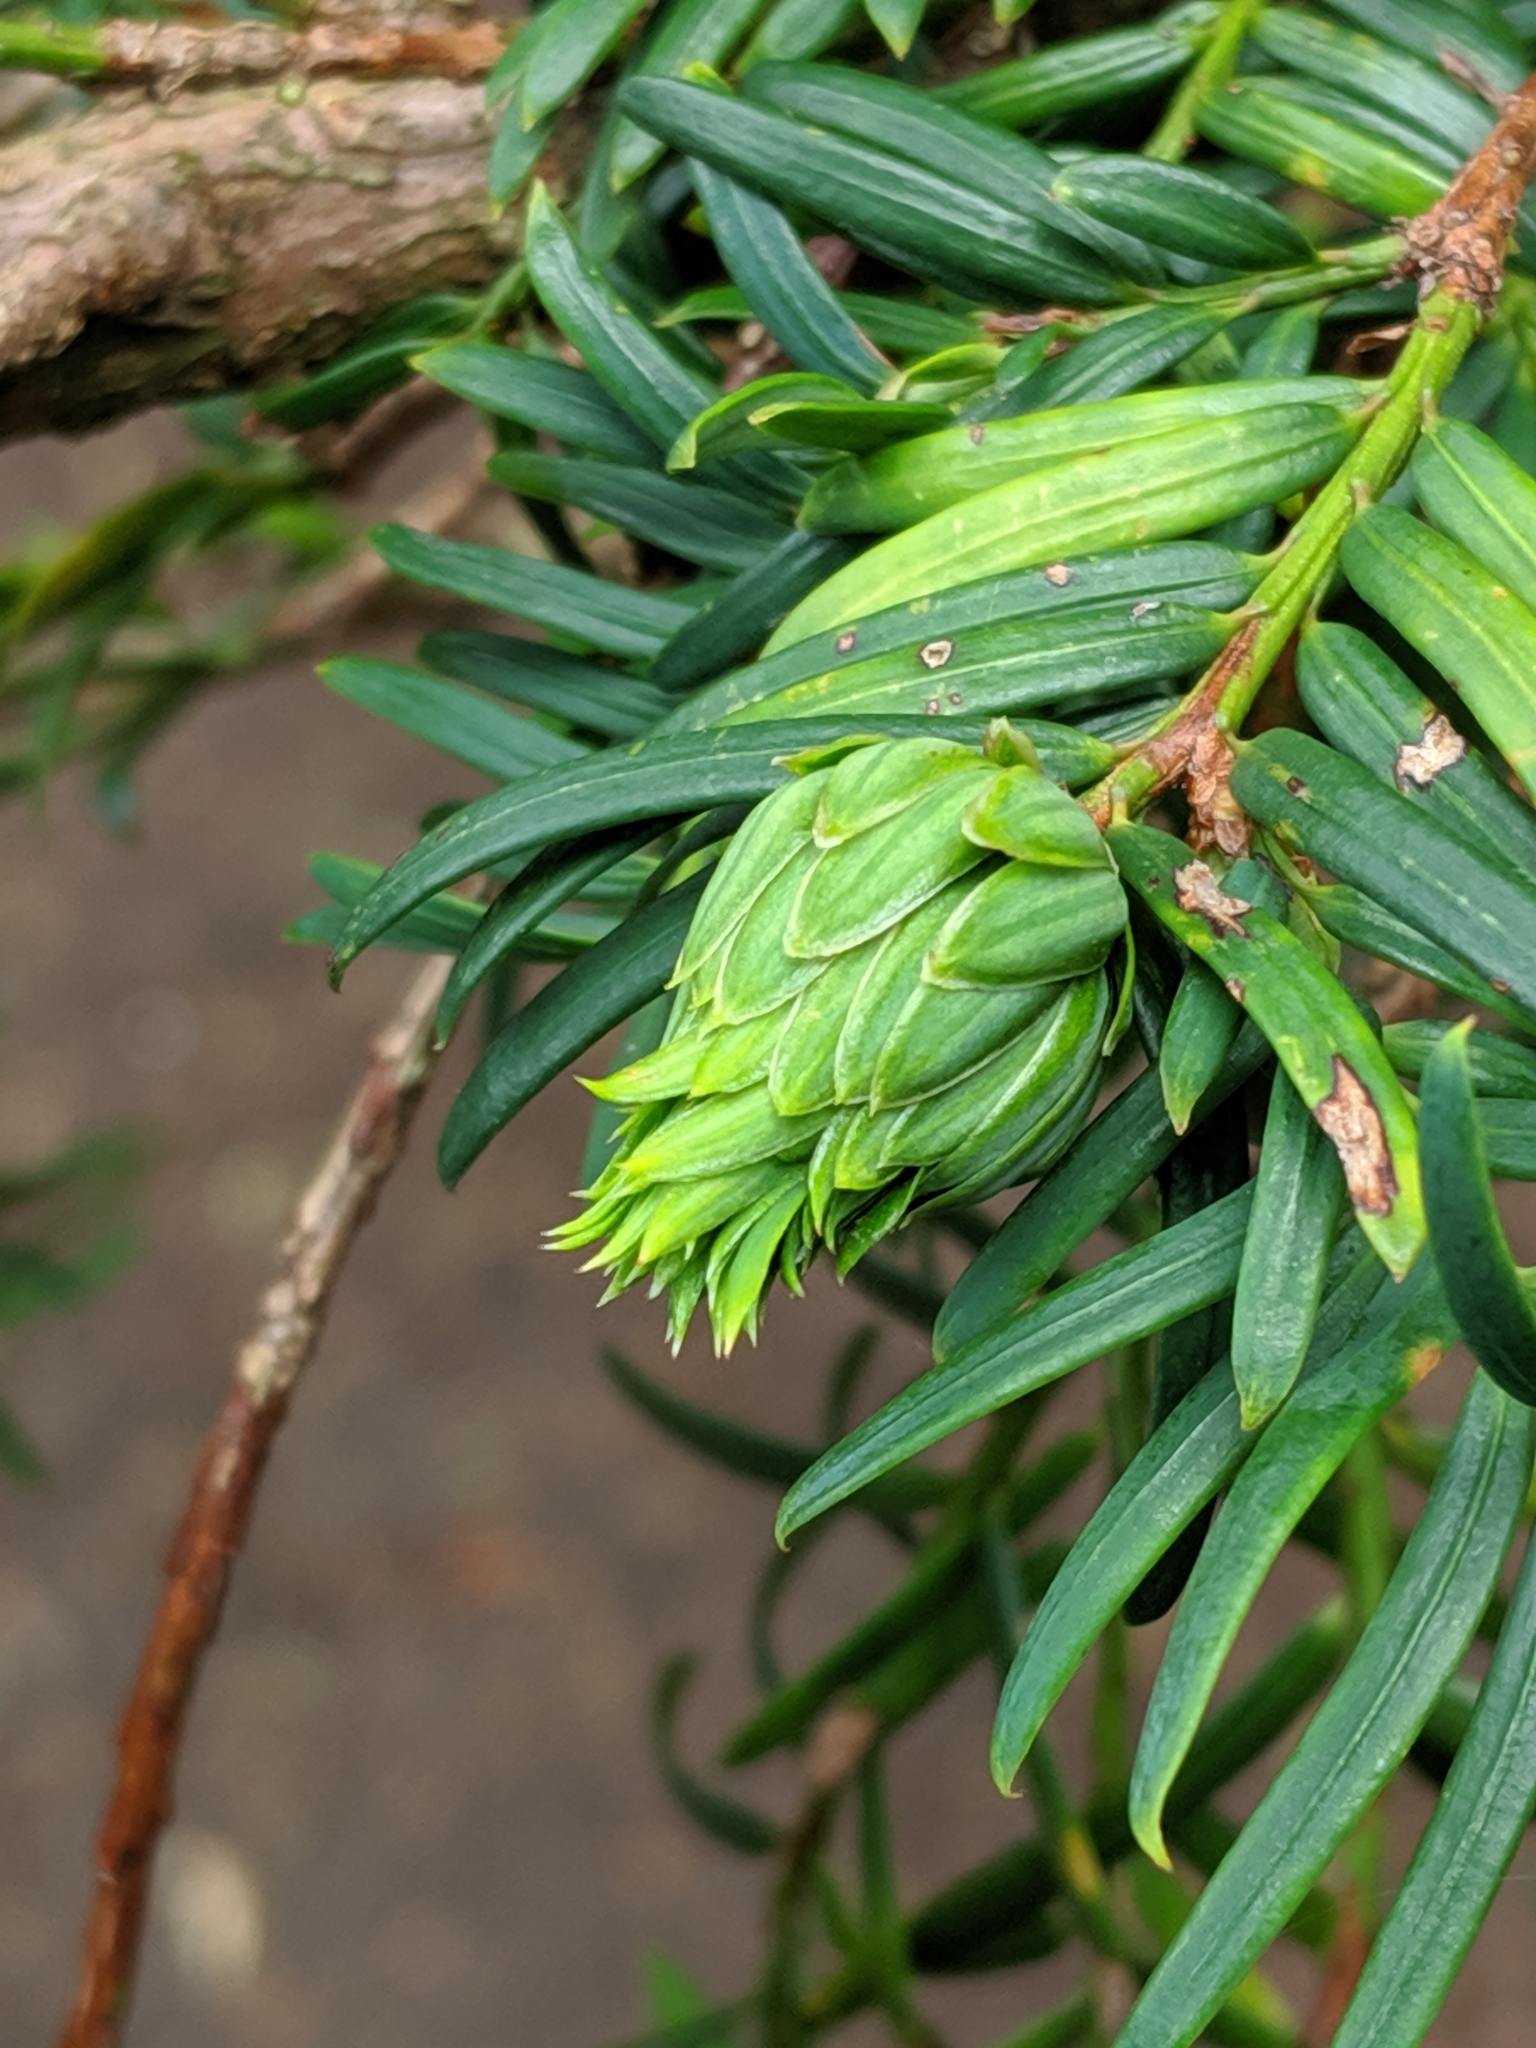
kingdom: Animalia
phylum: Arthropoda
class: Insecta
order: Diptera
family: Cecidomyiidae
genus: Taxomyia
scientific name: Taxomyia taxi
